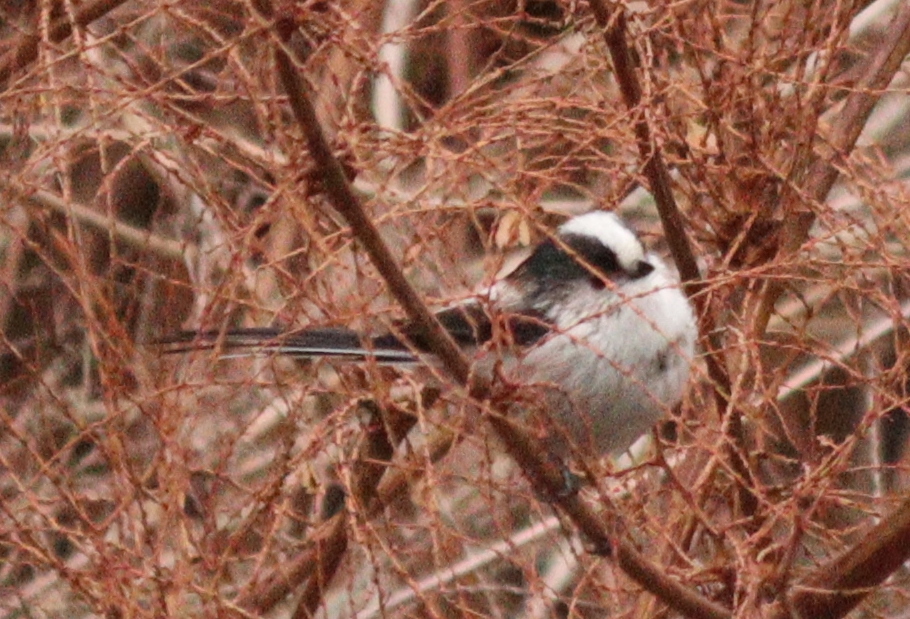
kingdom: Animalia
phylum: Chordata
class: Aves
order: Passeriformes
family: Aegithalidae
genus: Aegithalos
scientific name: Aegithalos caudatus
